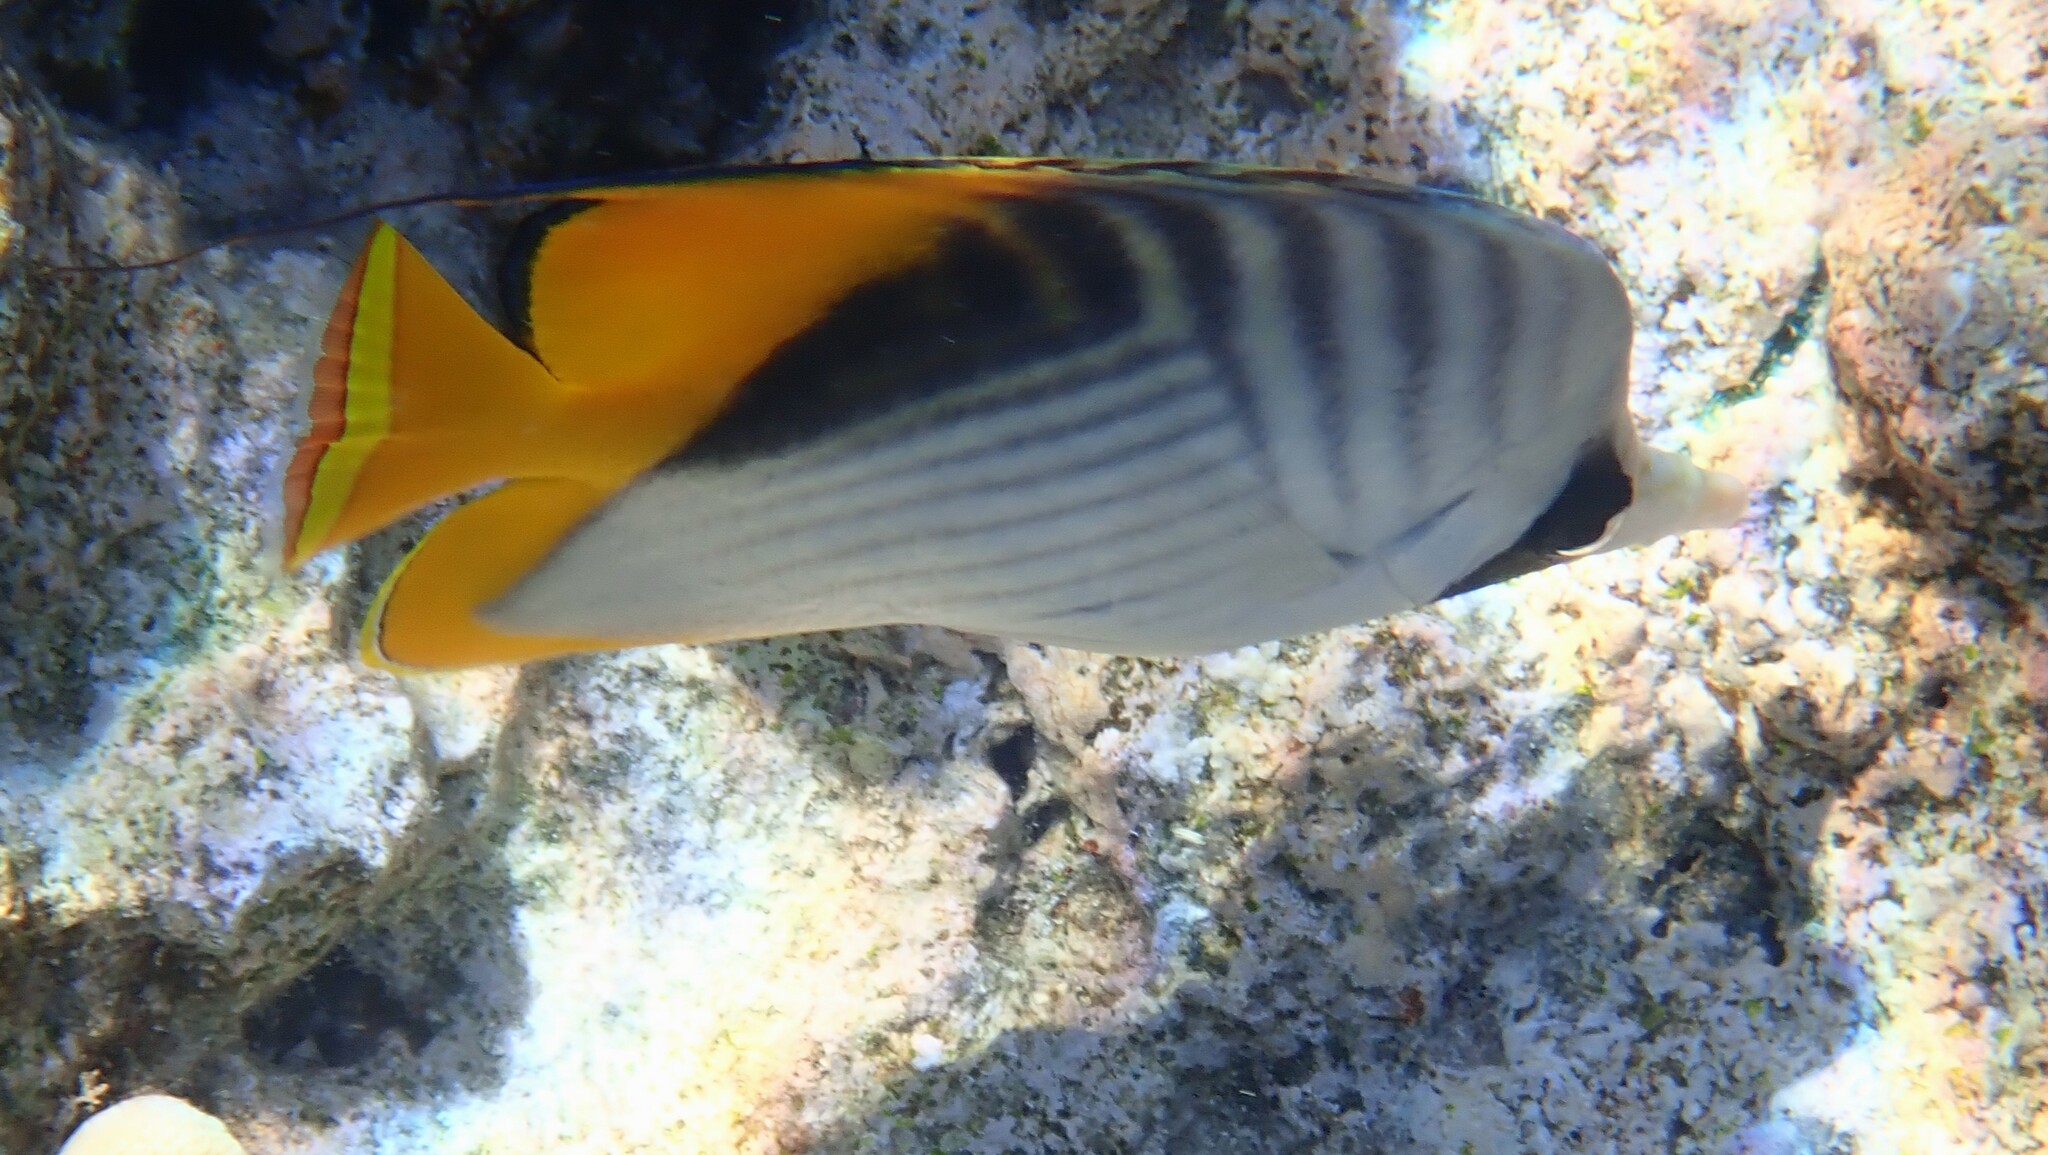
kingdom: Animalia
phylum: Chordata
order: Perciformes
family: Chaetodontidae
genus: Chaetodon
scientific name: Chaetodon auriga
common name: Threadfin butterflyfish
